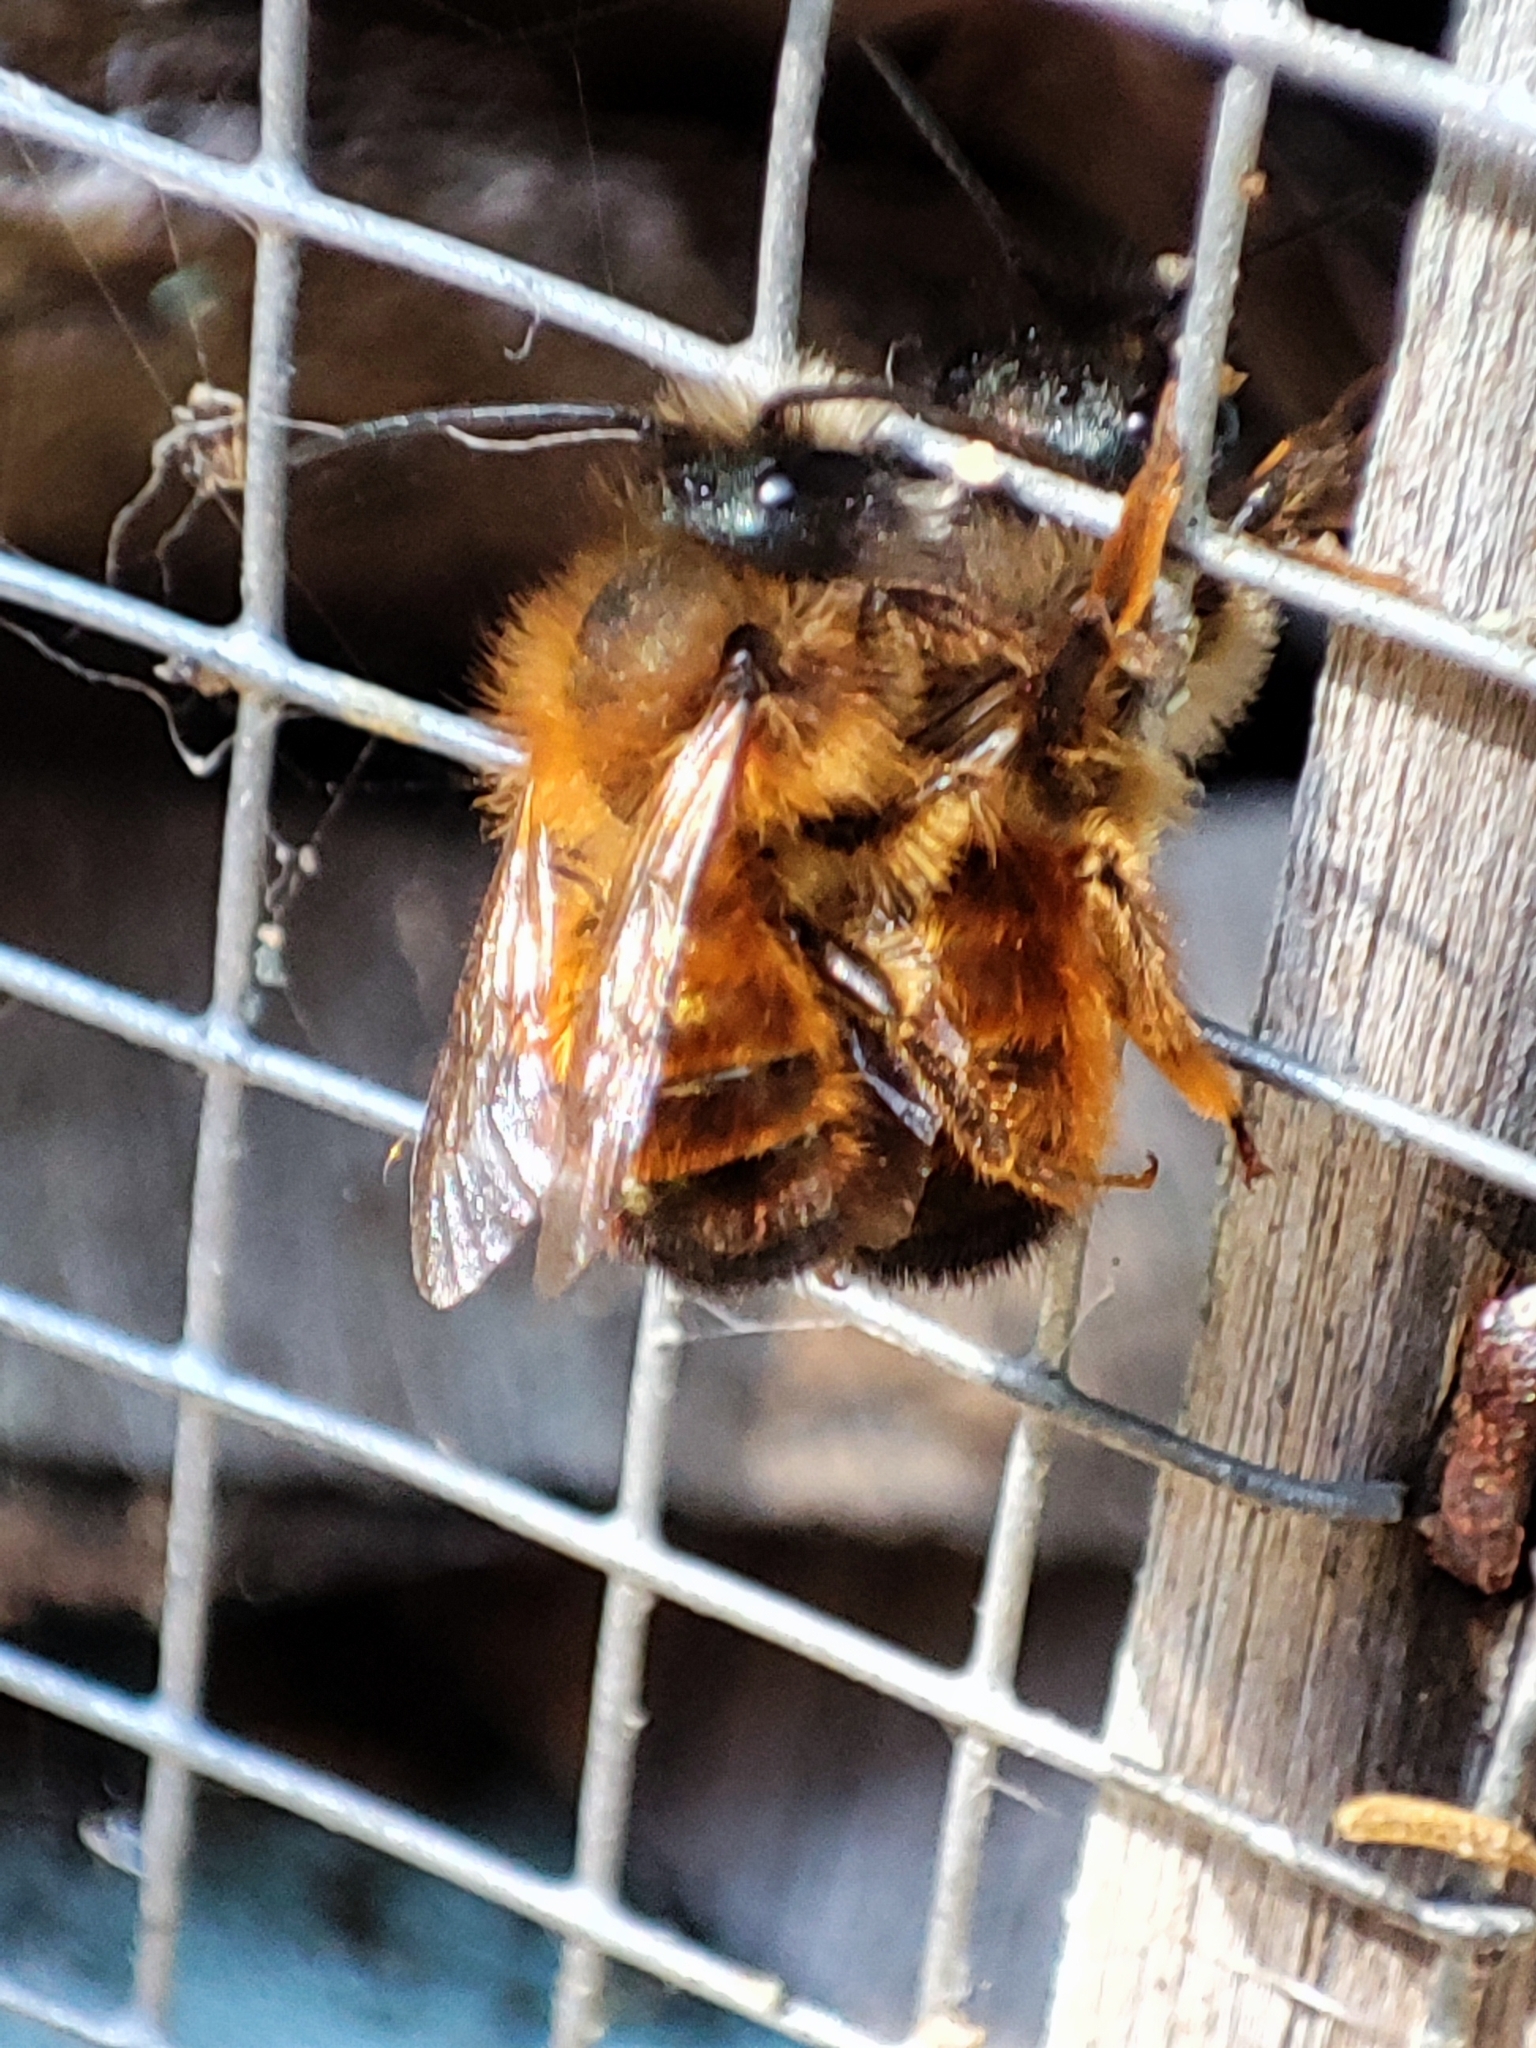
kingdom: Animalia
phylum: Arthropoda
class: Insecta
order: Hymenoptera
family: Megachilidae
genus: Osmia
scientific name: Osmia bicornis
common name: Red mason bee
